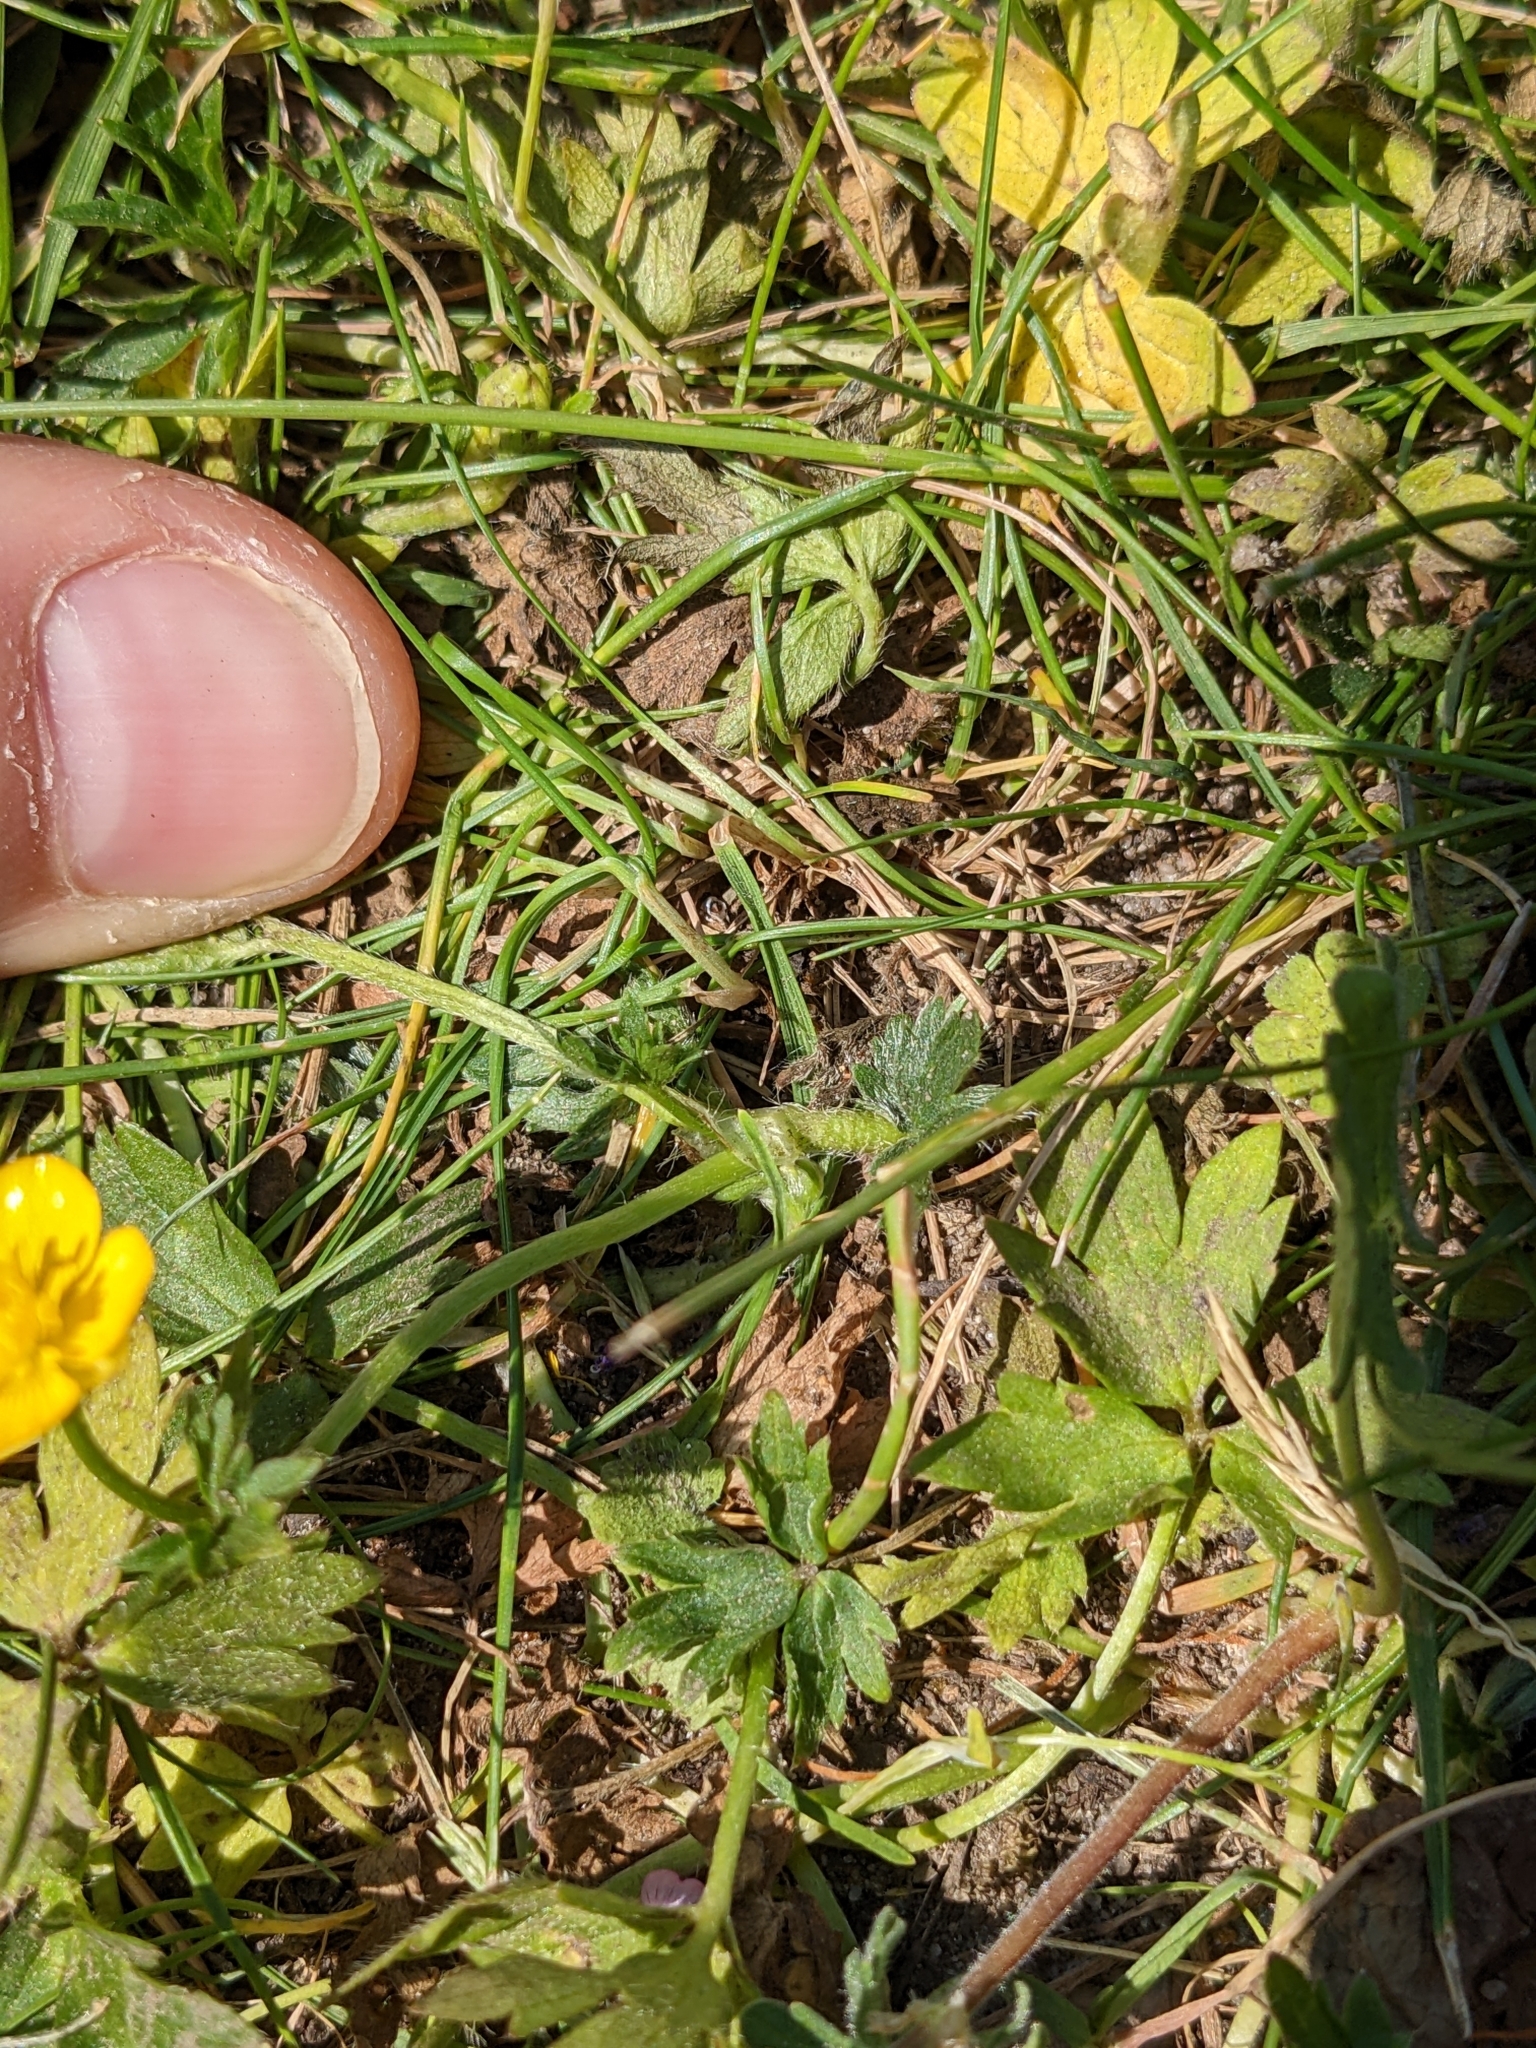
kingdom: Plantae
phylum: Tracheophyta
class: Magnoliopsida
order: Ranunculales
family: Ranunculaceae
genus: Ranunculus
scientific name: Ranunculus repens
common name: Creeping buttercup
